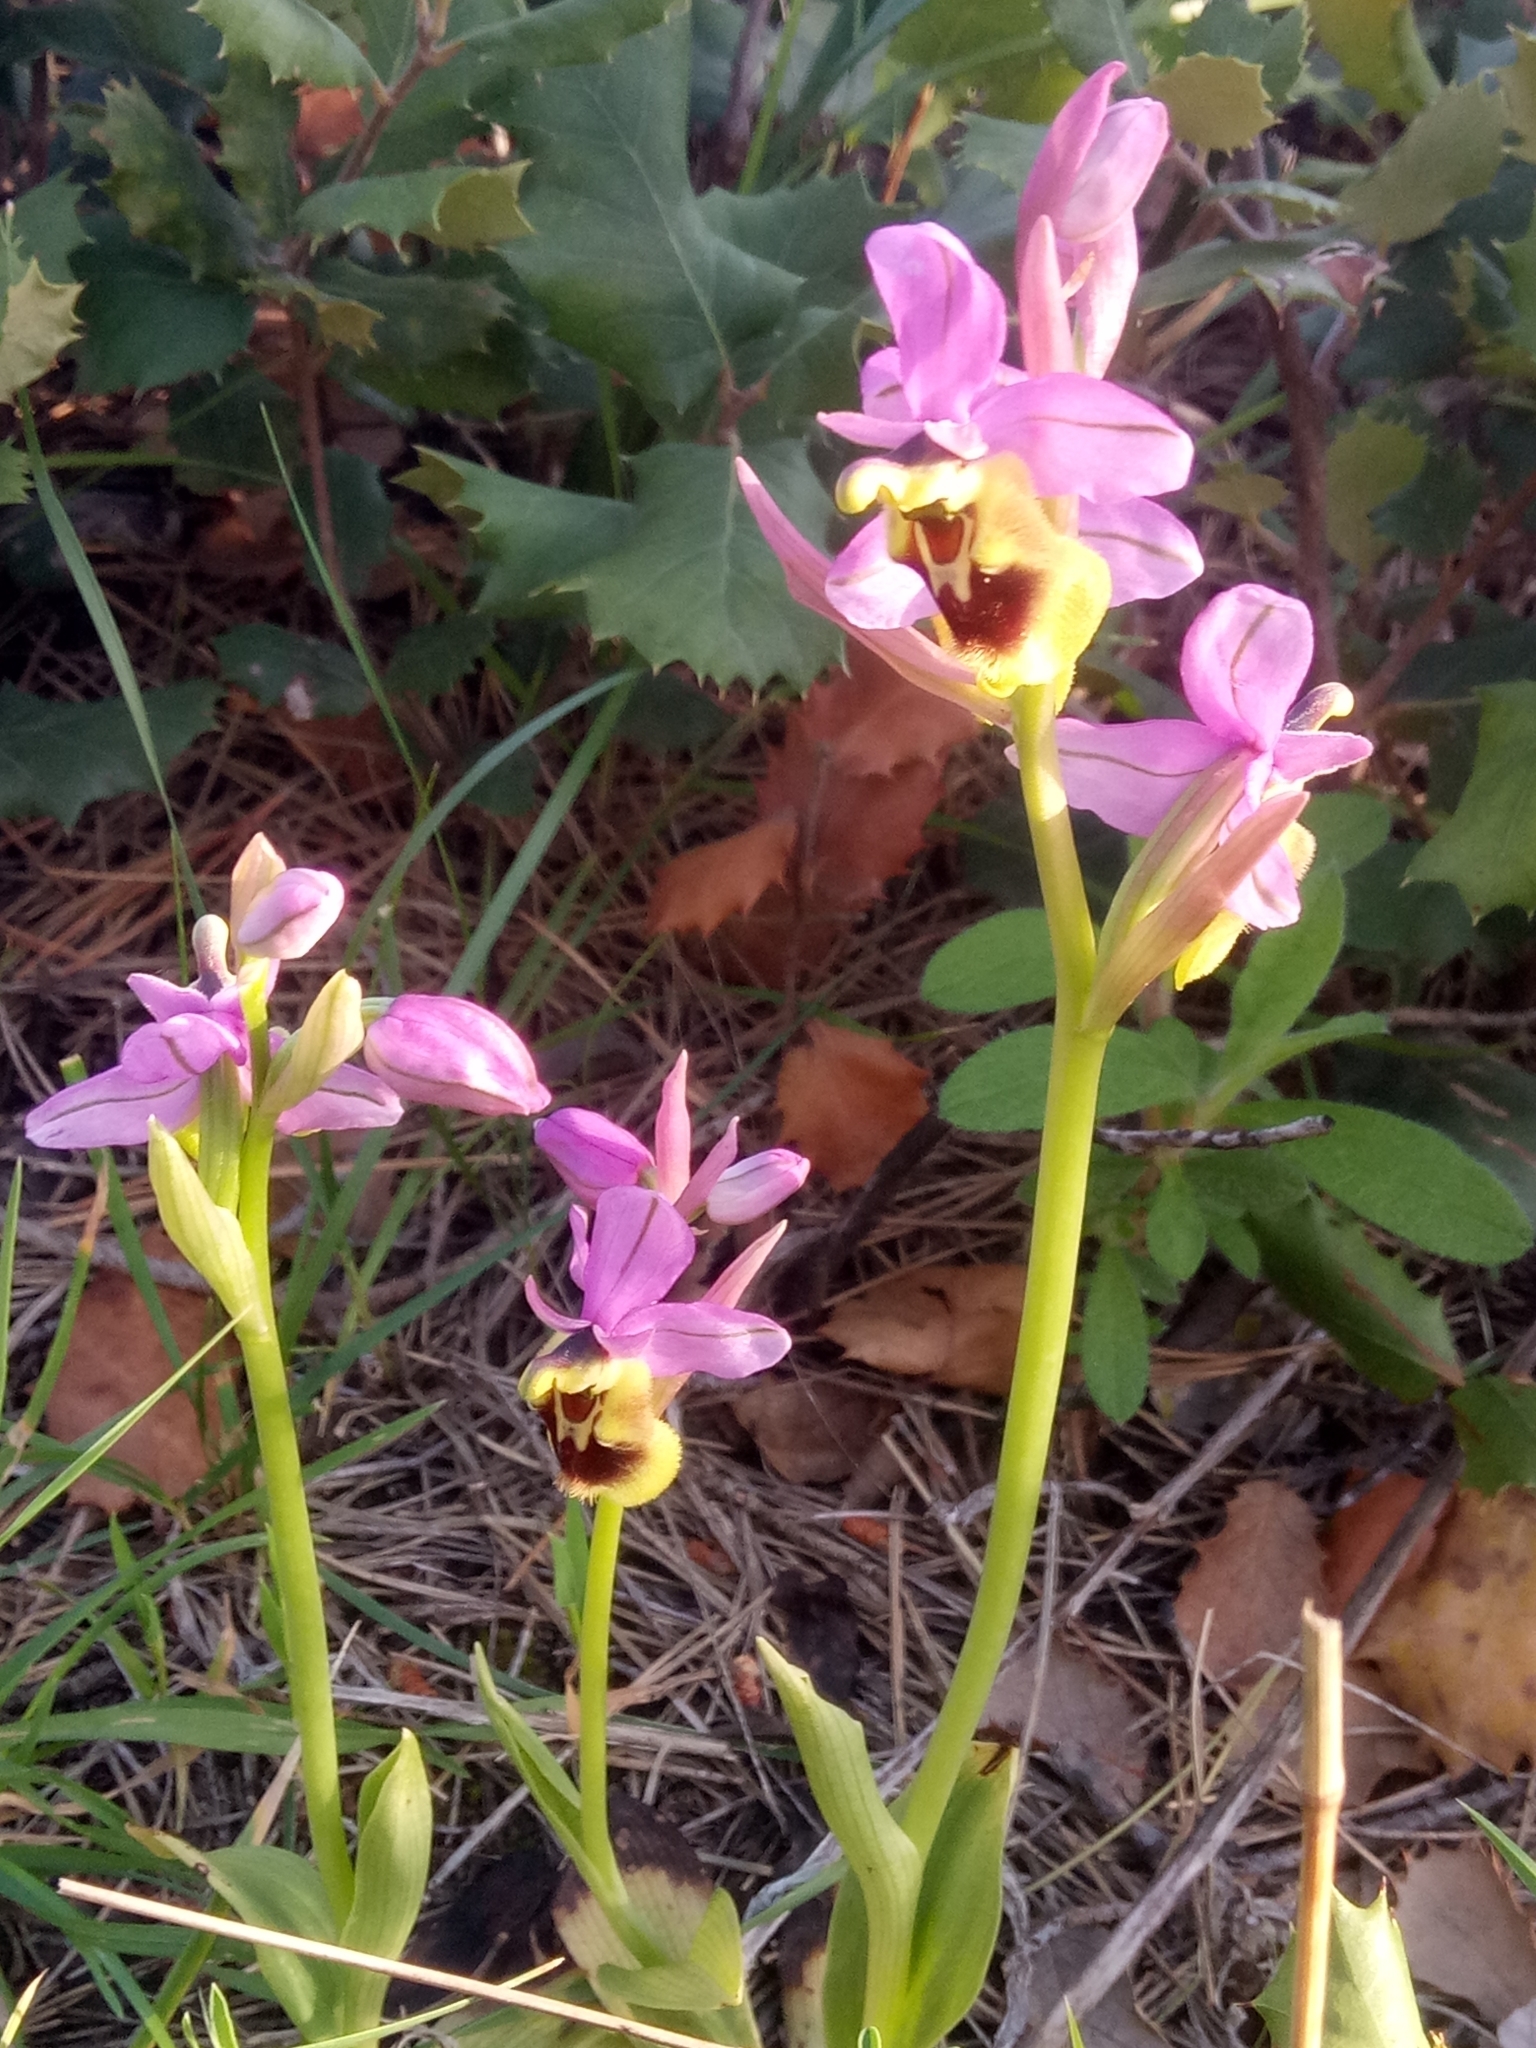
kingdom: Plantae
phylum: Tracheophyta
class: Liliopsida
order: Asparagales
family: Orchidaceae
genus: Ophrys
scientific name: Ophrys tenthredinifera
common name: Sawfly orchid
